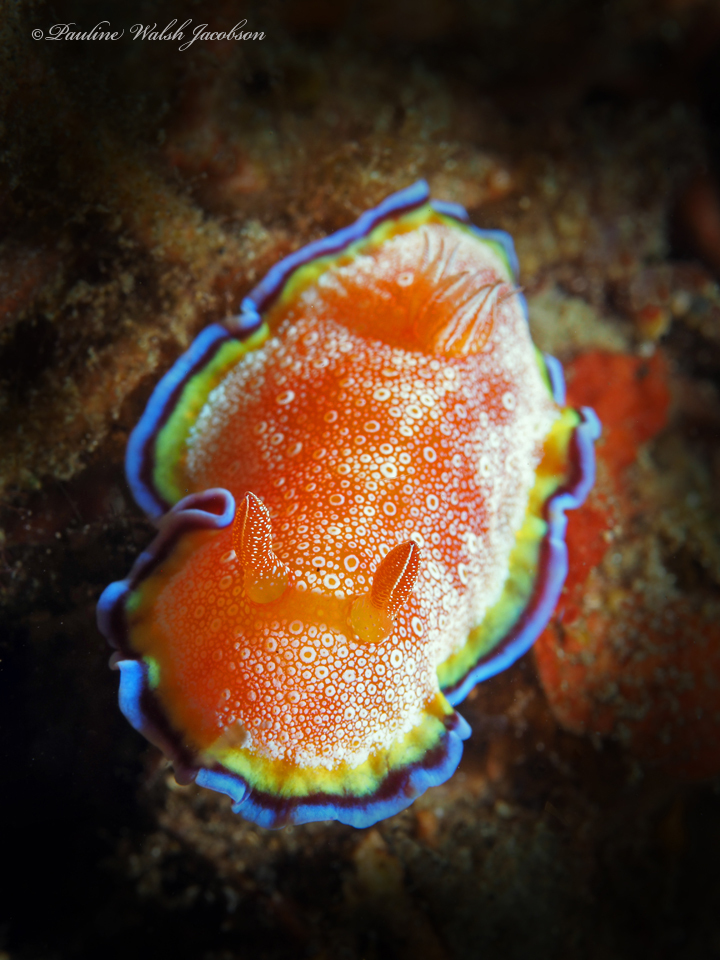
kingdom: Animalia
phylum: Mollusca
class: Gastropoda
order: Nudibranchia
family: Chromodorididae
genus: Goniobranchus
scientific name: Goniobranchus albopunctatus
